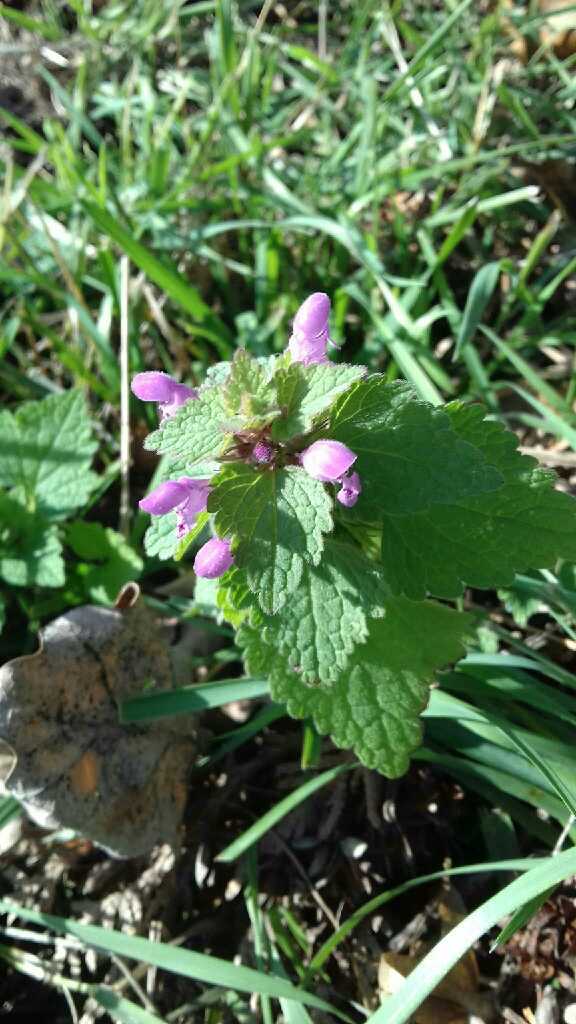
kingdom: Plantae
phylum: Tracheophyta
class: Magnoliopsida
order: Lamiales
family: Lamiaceae
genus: Lamium
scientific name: Lamium purpureum
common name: Red dead-nettle
